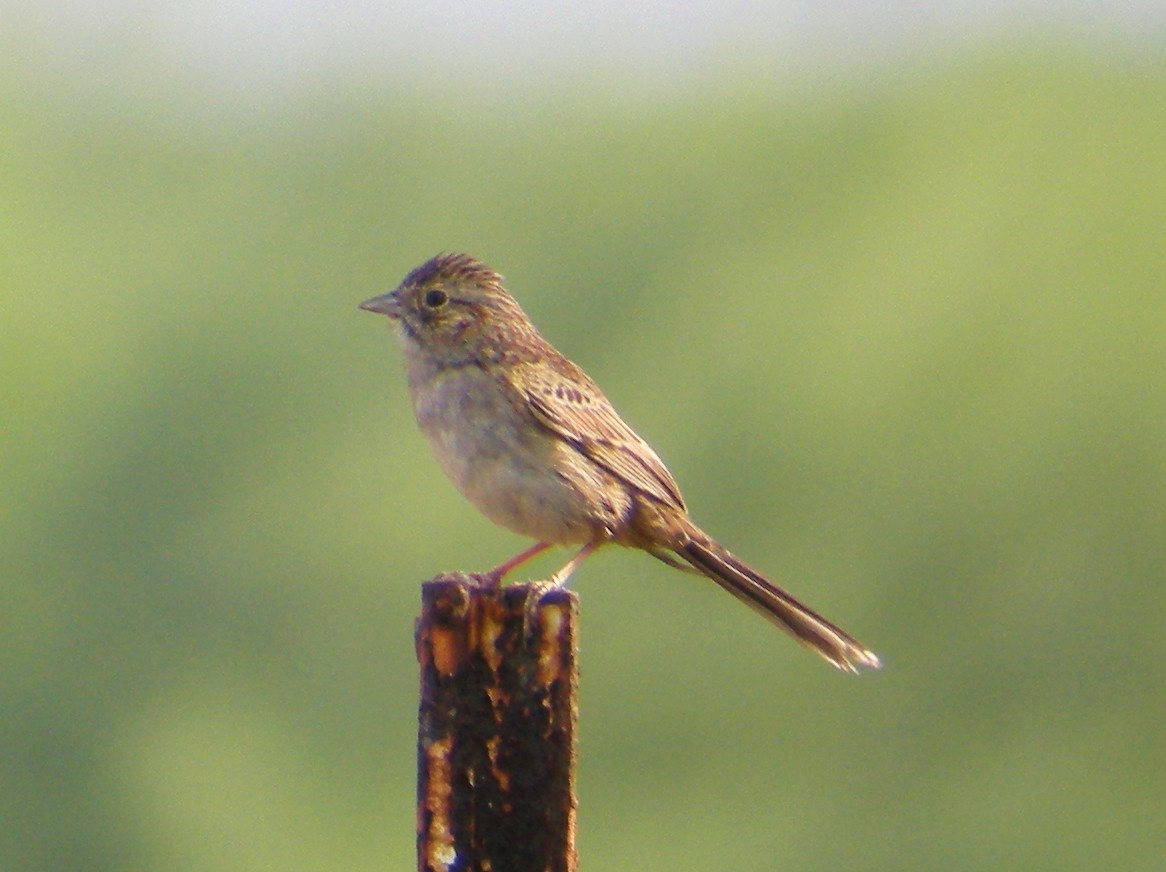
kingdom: Animalia
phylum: Chordata
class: Aves
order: Passeriformes
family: Passerellidae
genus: Peucaea
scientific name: Peucaea cassinii
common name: Cassin's sparrow
